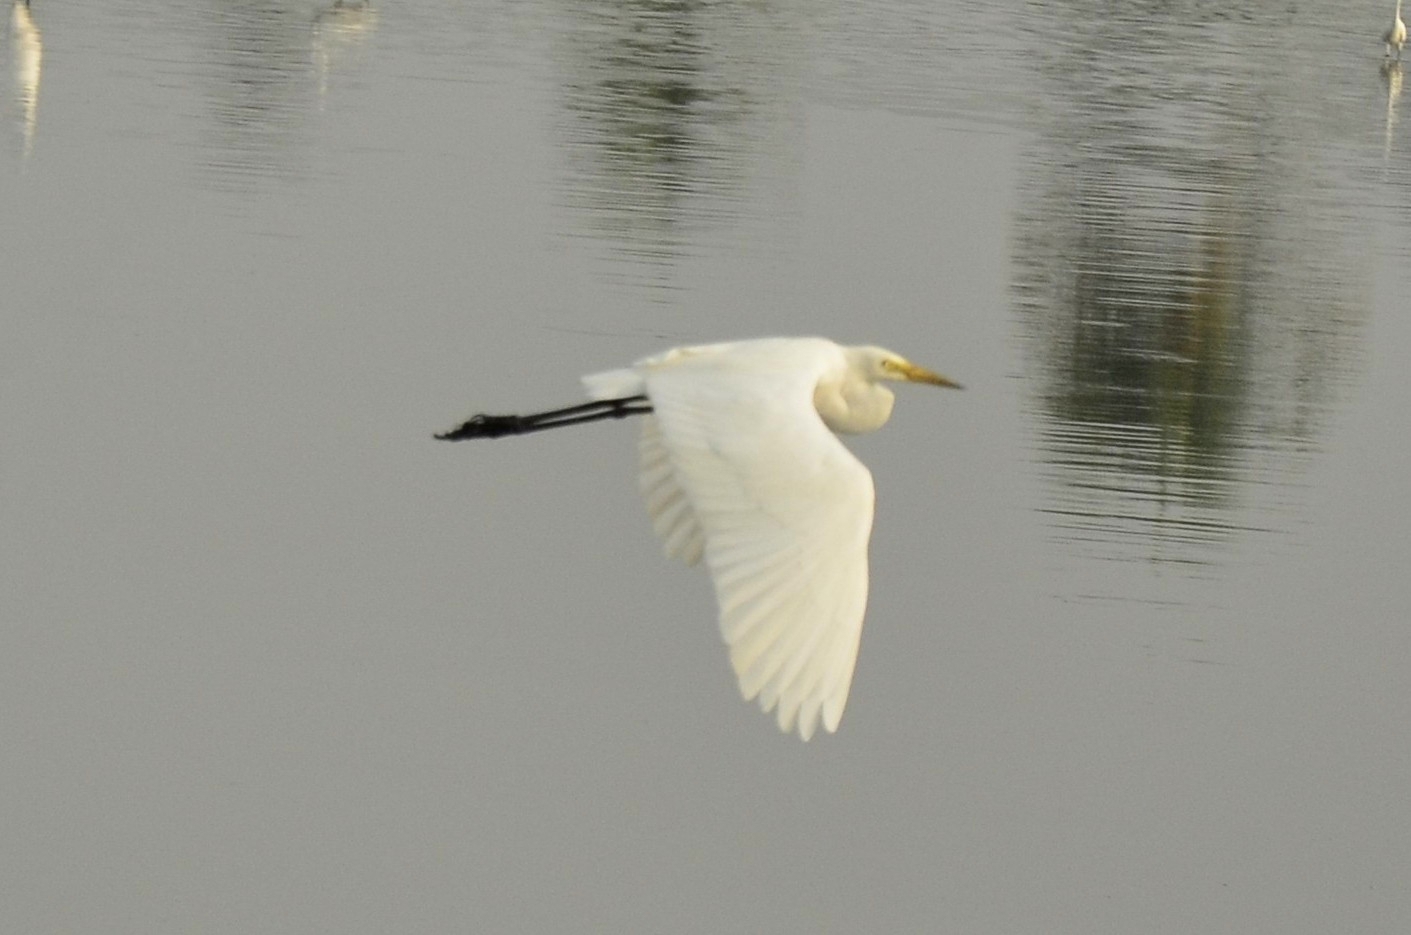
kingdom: Animalia
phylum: Chordata
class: Aves
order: Pelecaniformes
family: Ardeidae
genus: Egretta
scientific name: Egretta intermedia
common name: Intermediate egret
